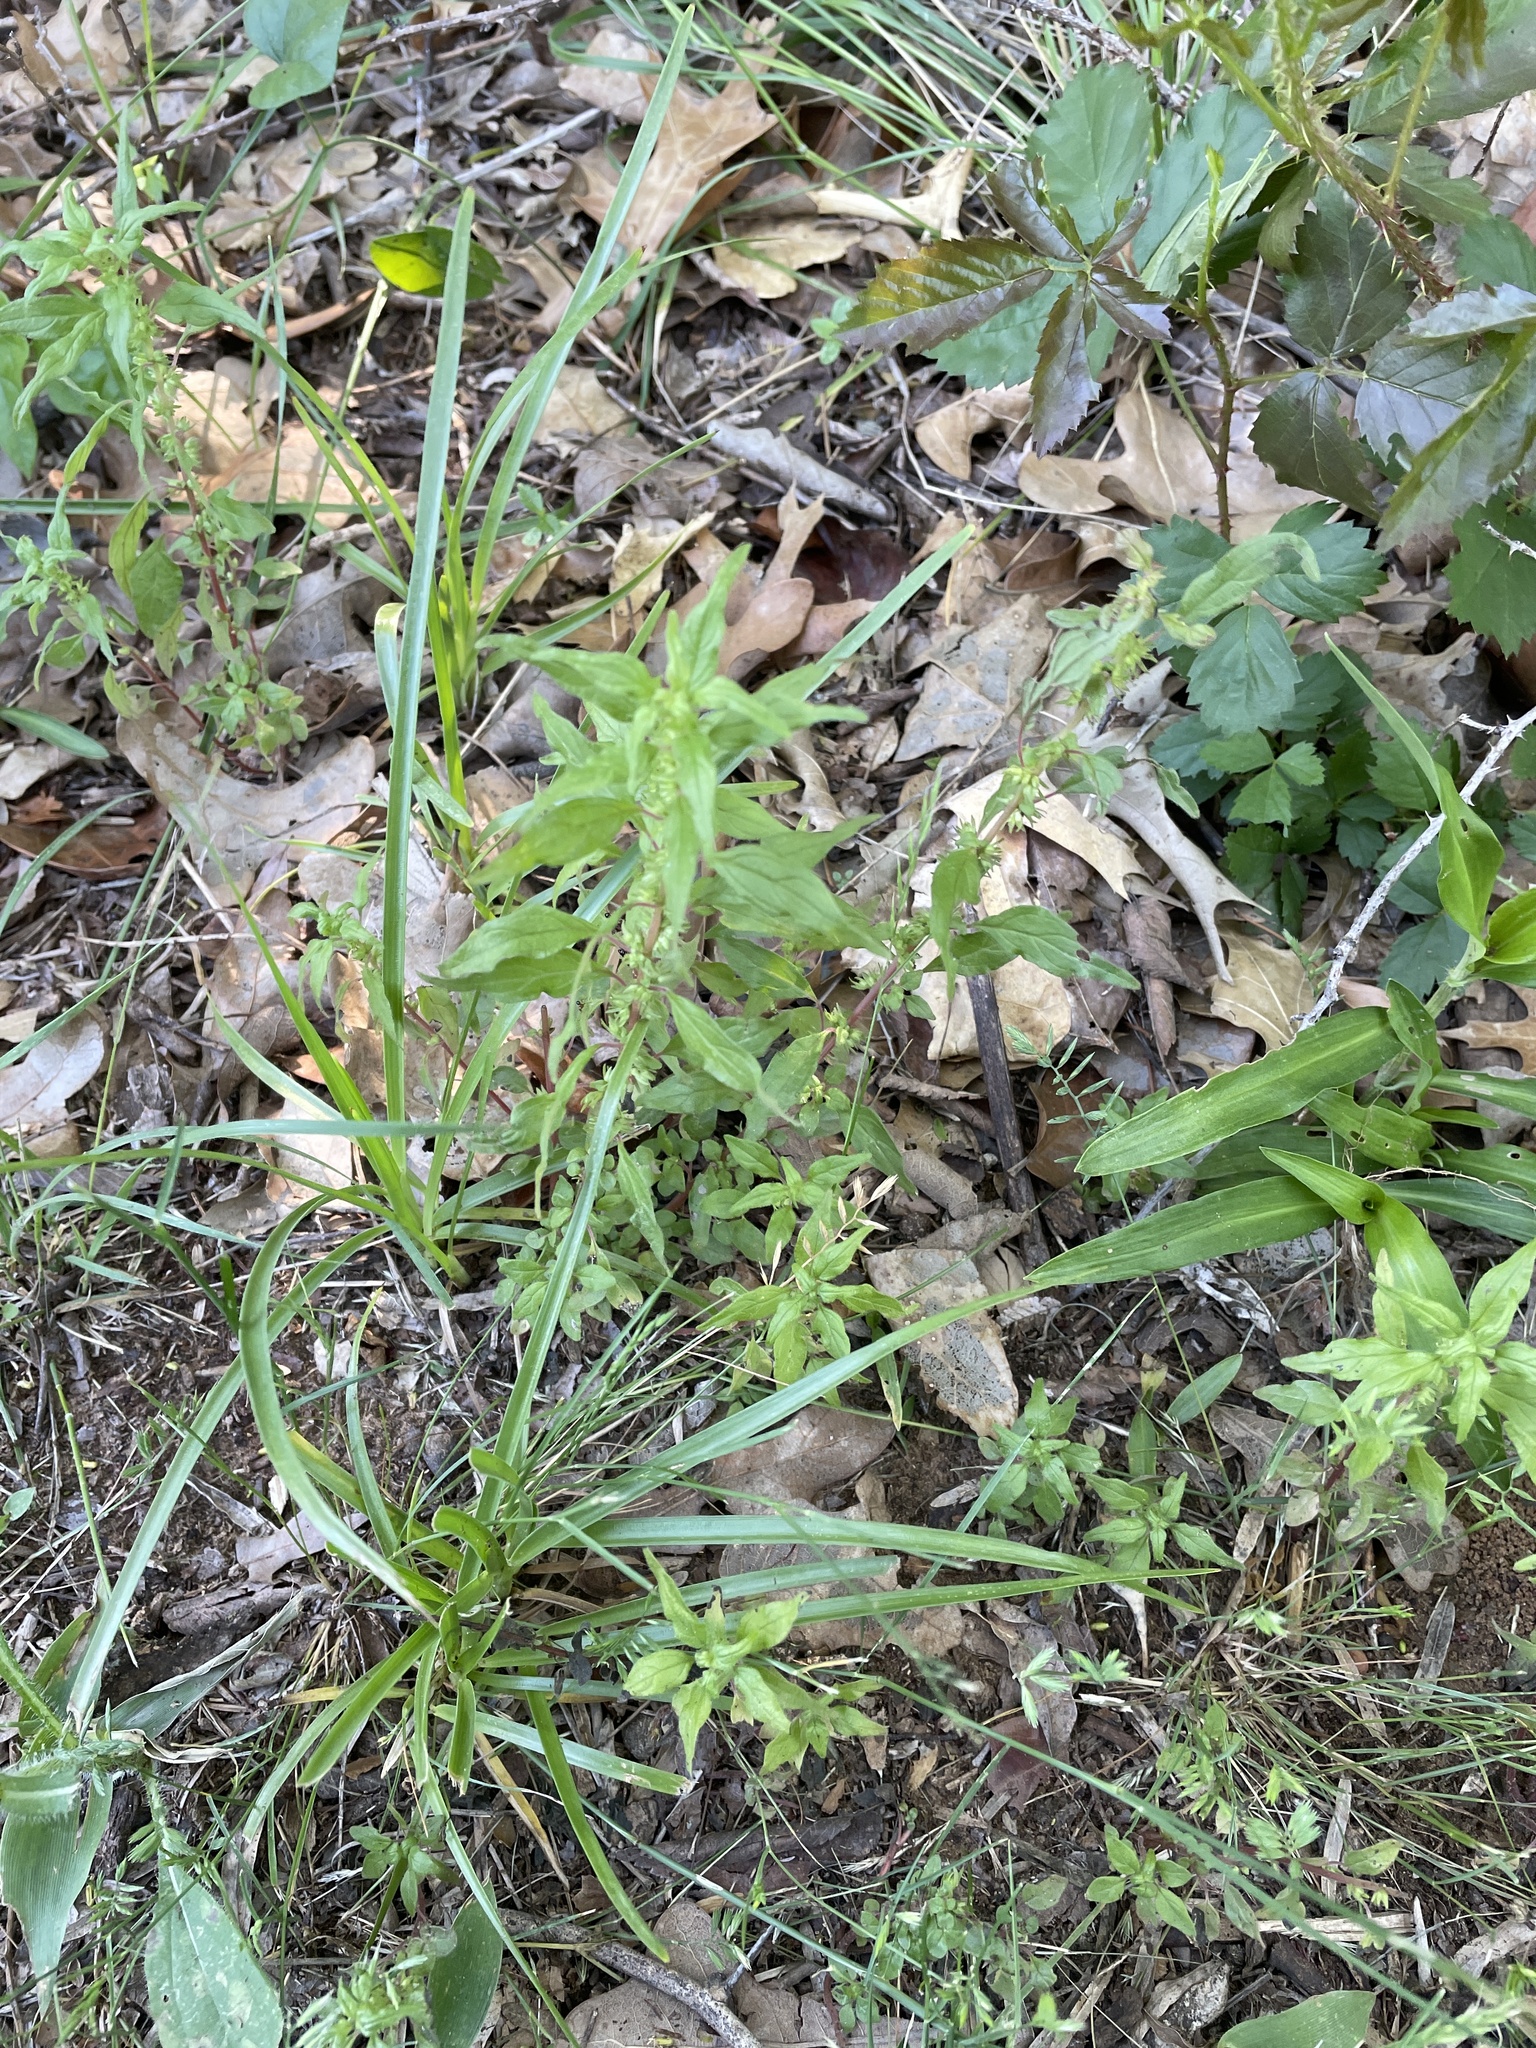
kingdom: Plantae
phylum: Tracheophyta
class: Magnoliopsida
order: Rosales
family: Urticaceae
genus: Parietaria
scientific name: Parietaria pensylvanica
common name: Pennsylvania pellitory
